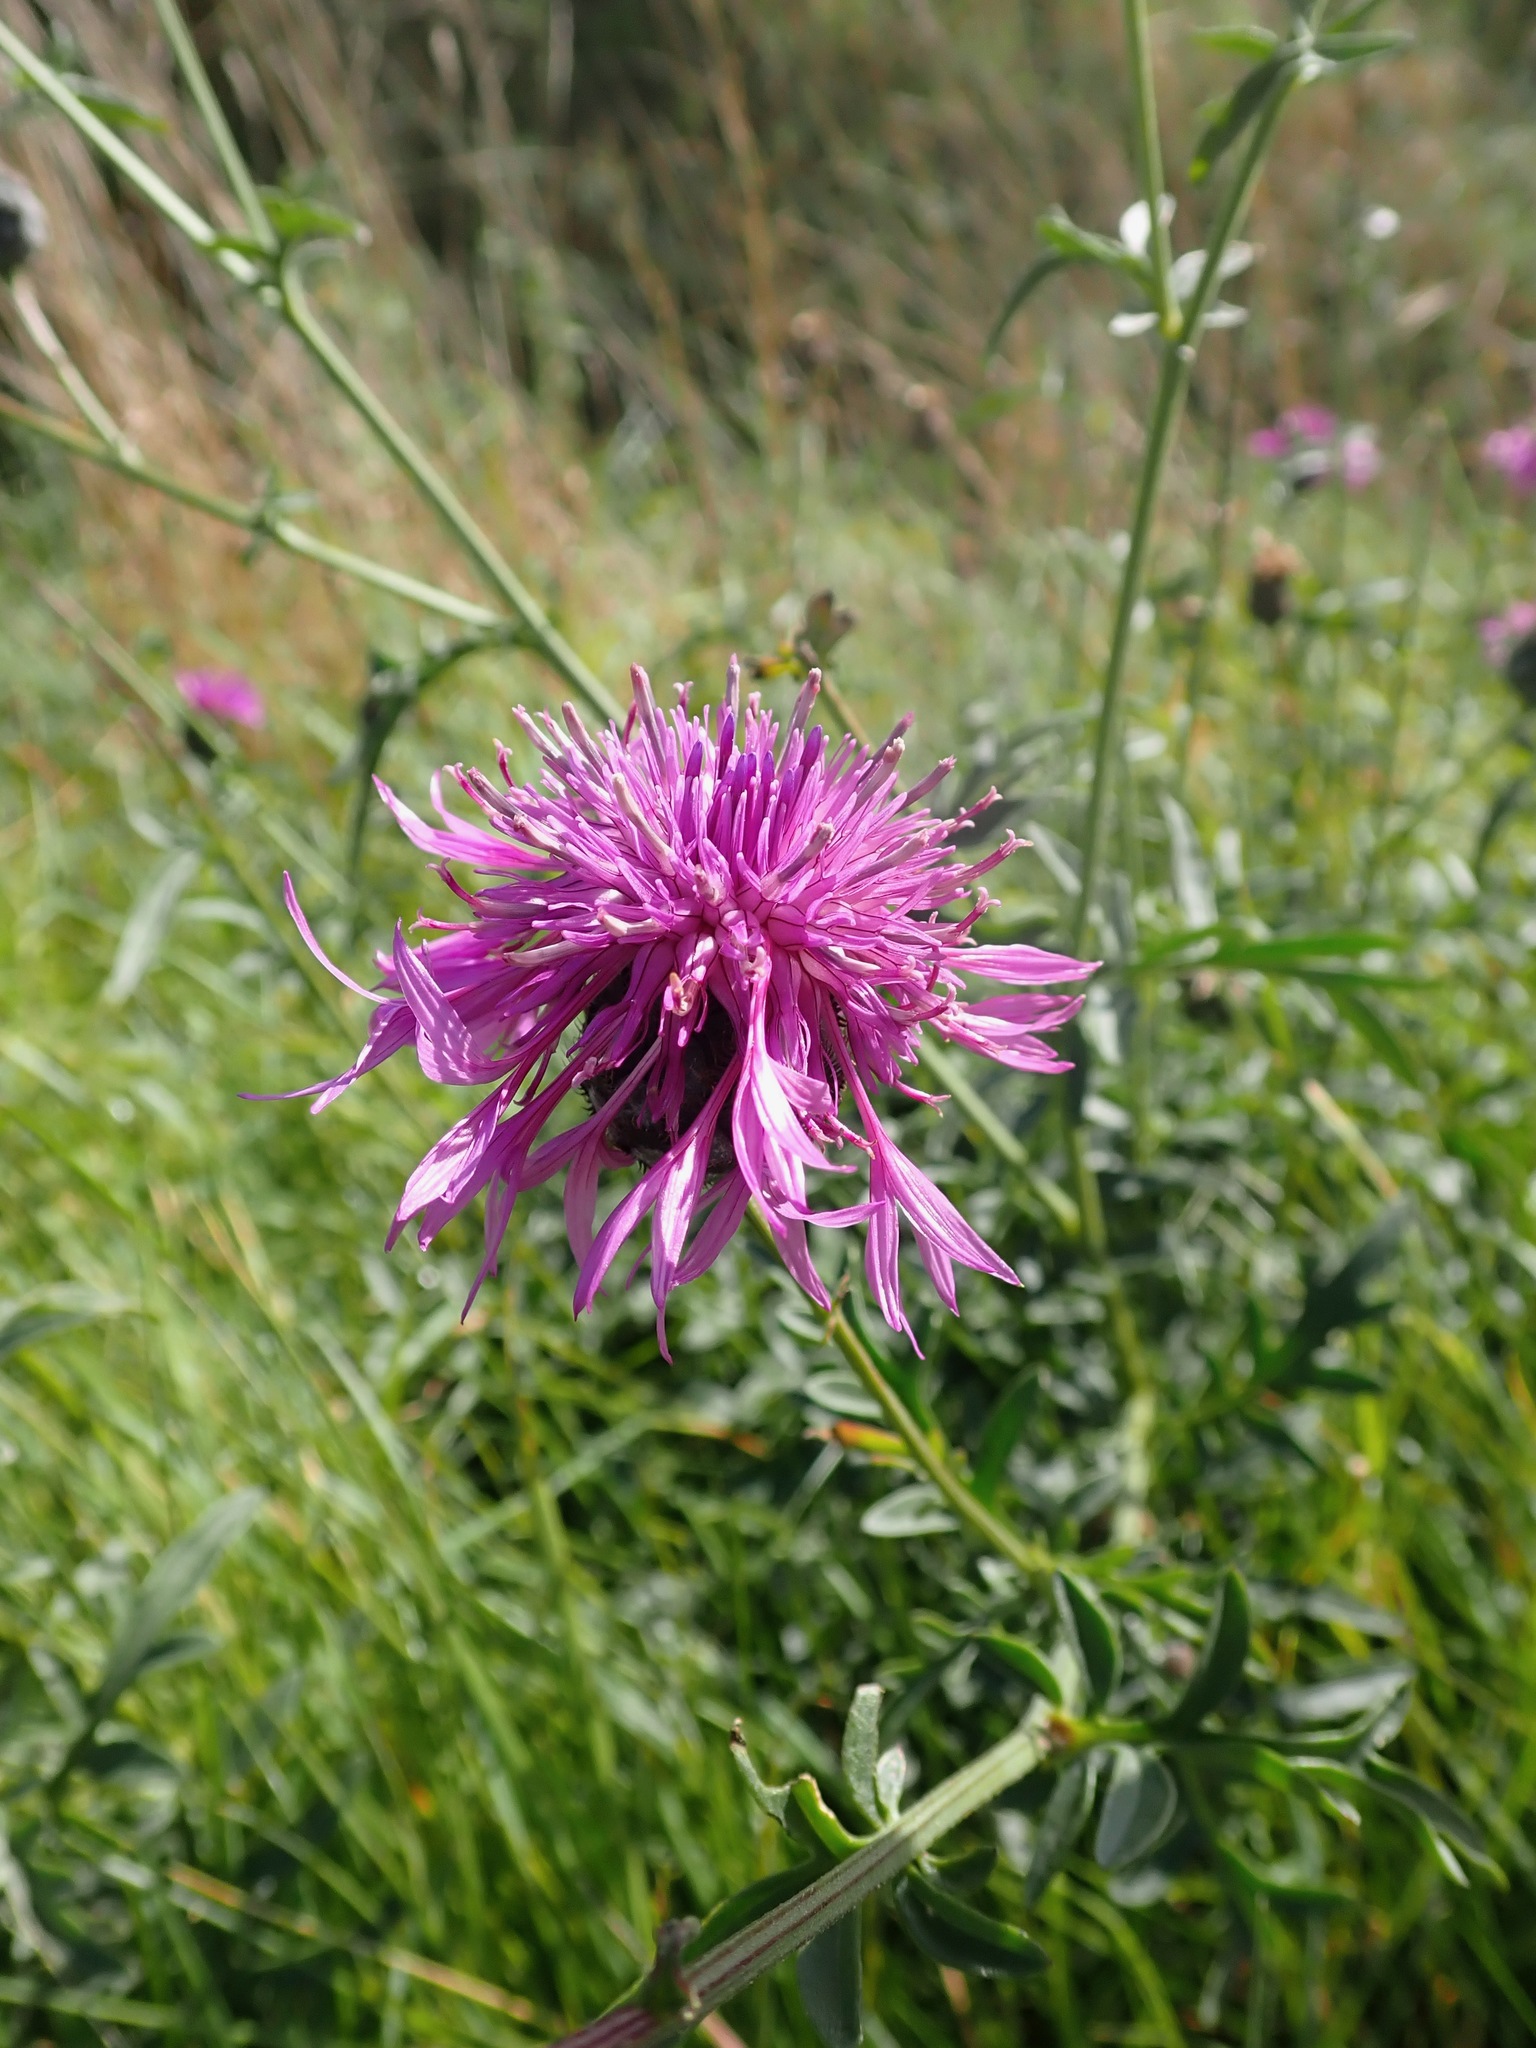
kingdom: Plantae
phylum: Tracheophyta
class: Magnoliopsida
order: Asterales
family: Asteraceae
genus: Centaurea
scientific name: Centaurea scabiosa
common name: Greater knapweed
